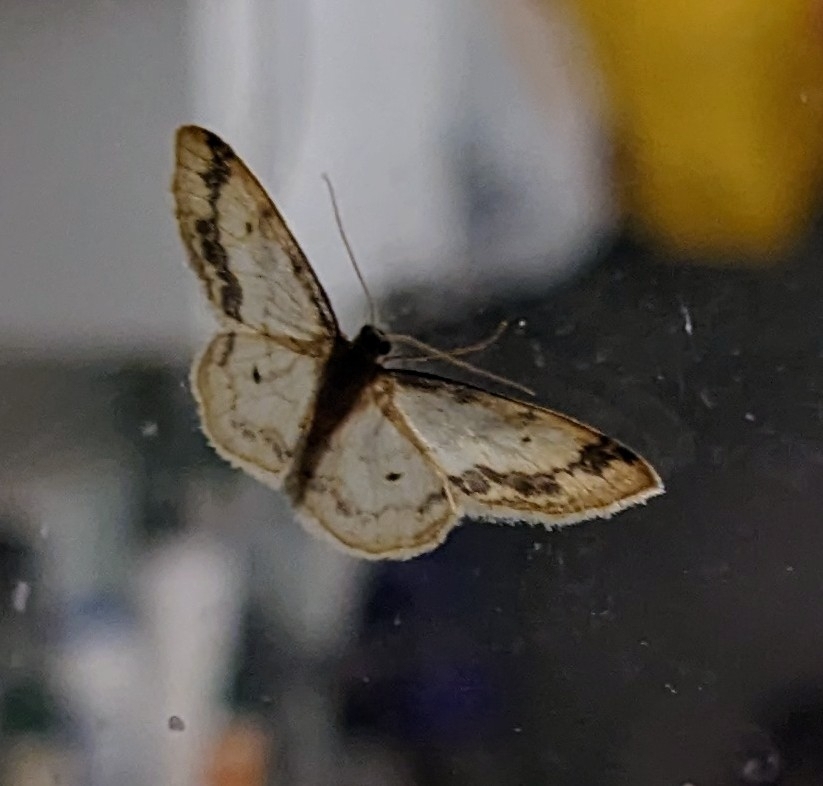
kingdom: Animalia
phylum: Arthropoda
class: Insecta
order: Lepidoptera
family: Geometridae
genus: Idaea
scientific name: Idaea trigeminata
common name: Treble brown spot
